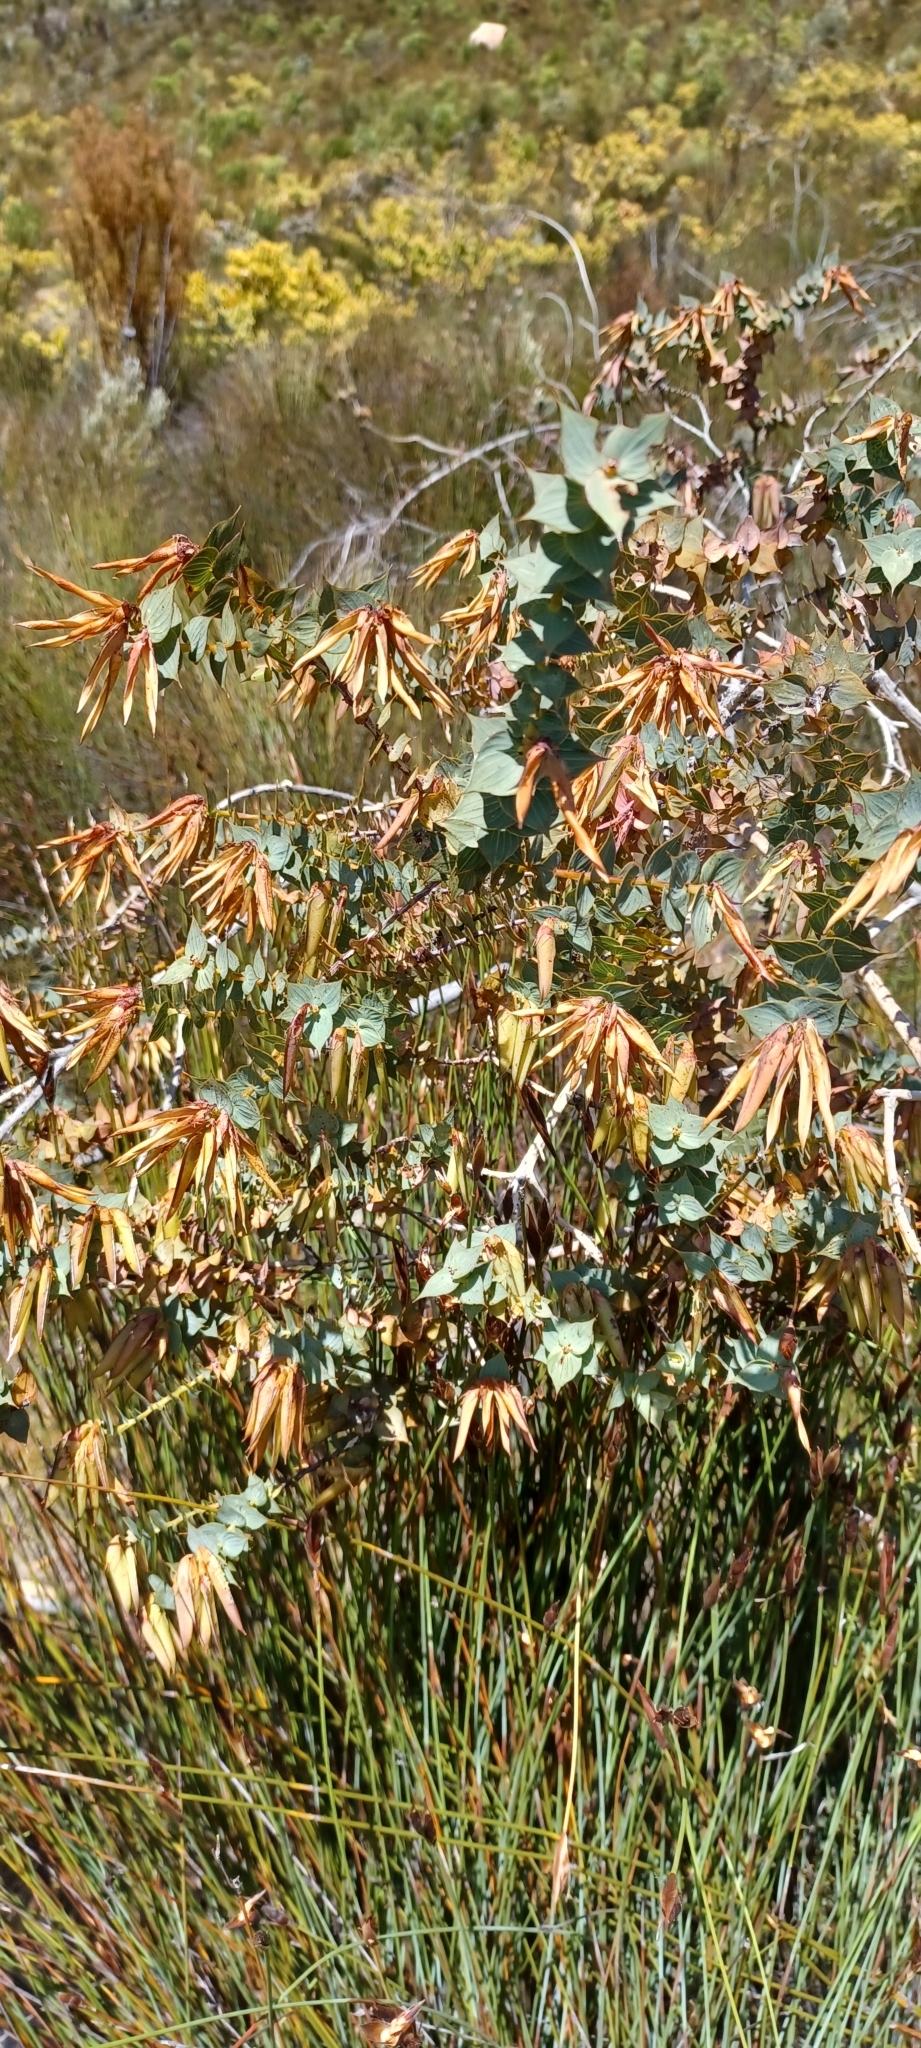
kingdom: Plantae
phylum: Tracheophyta
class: Magnoliopsida
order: Fabales
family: Fabaceae
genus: Aspalathus
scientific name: Aspalathus crenata
